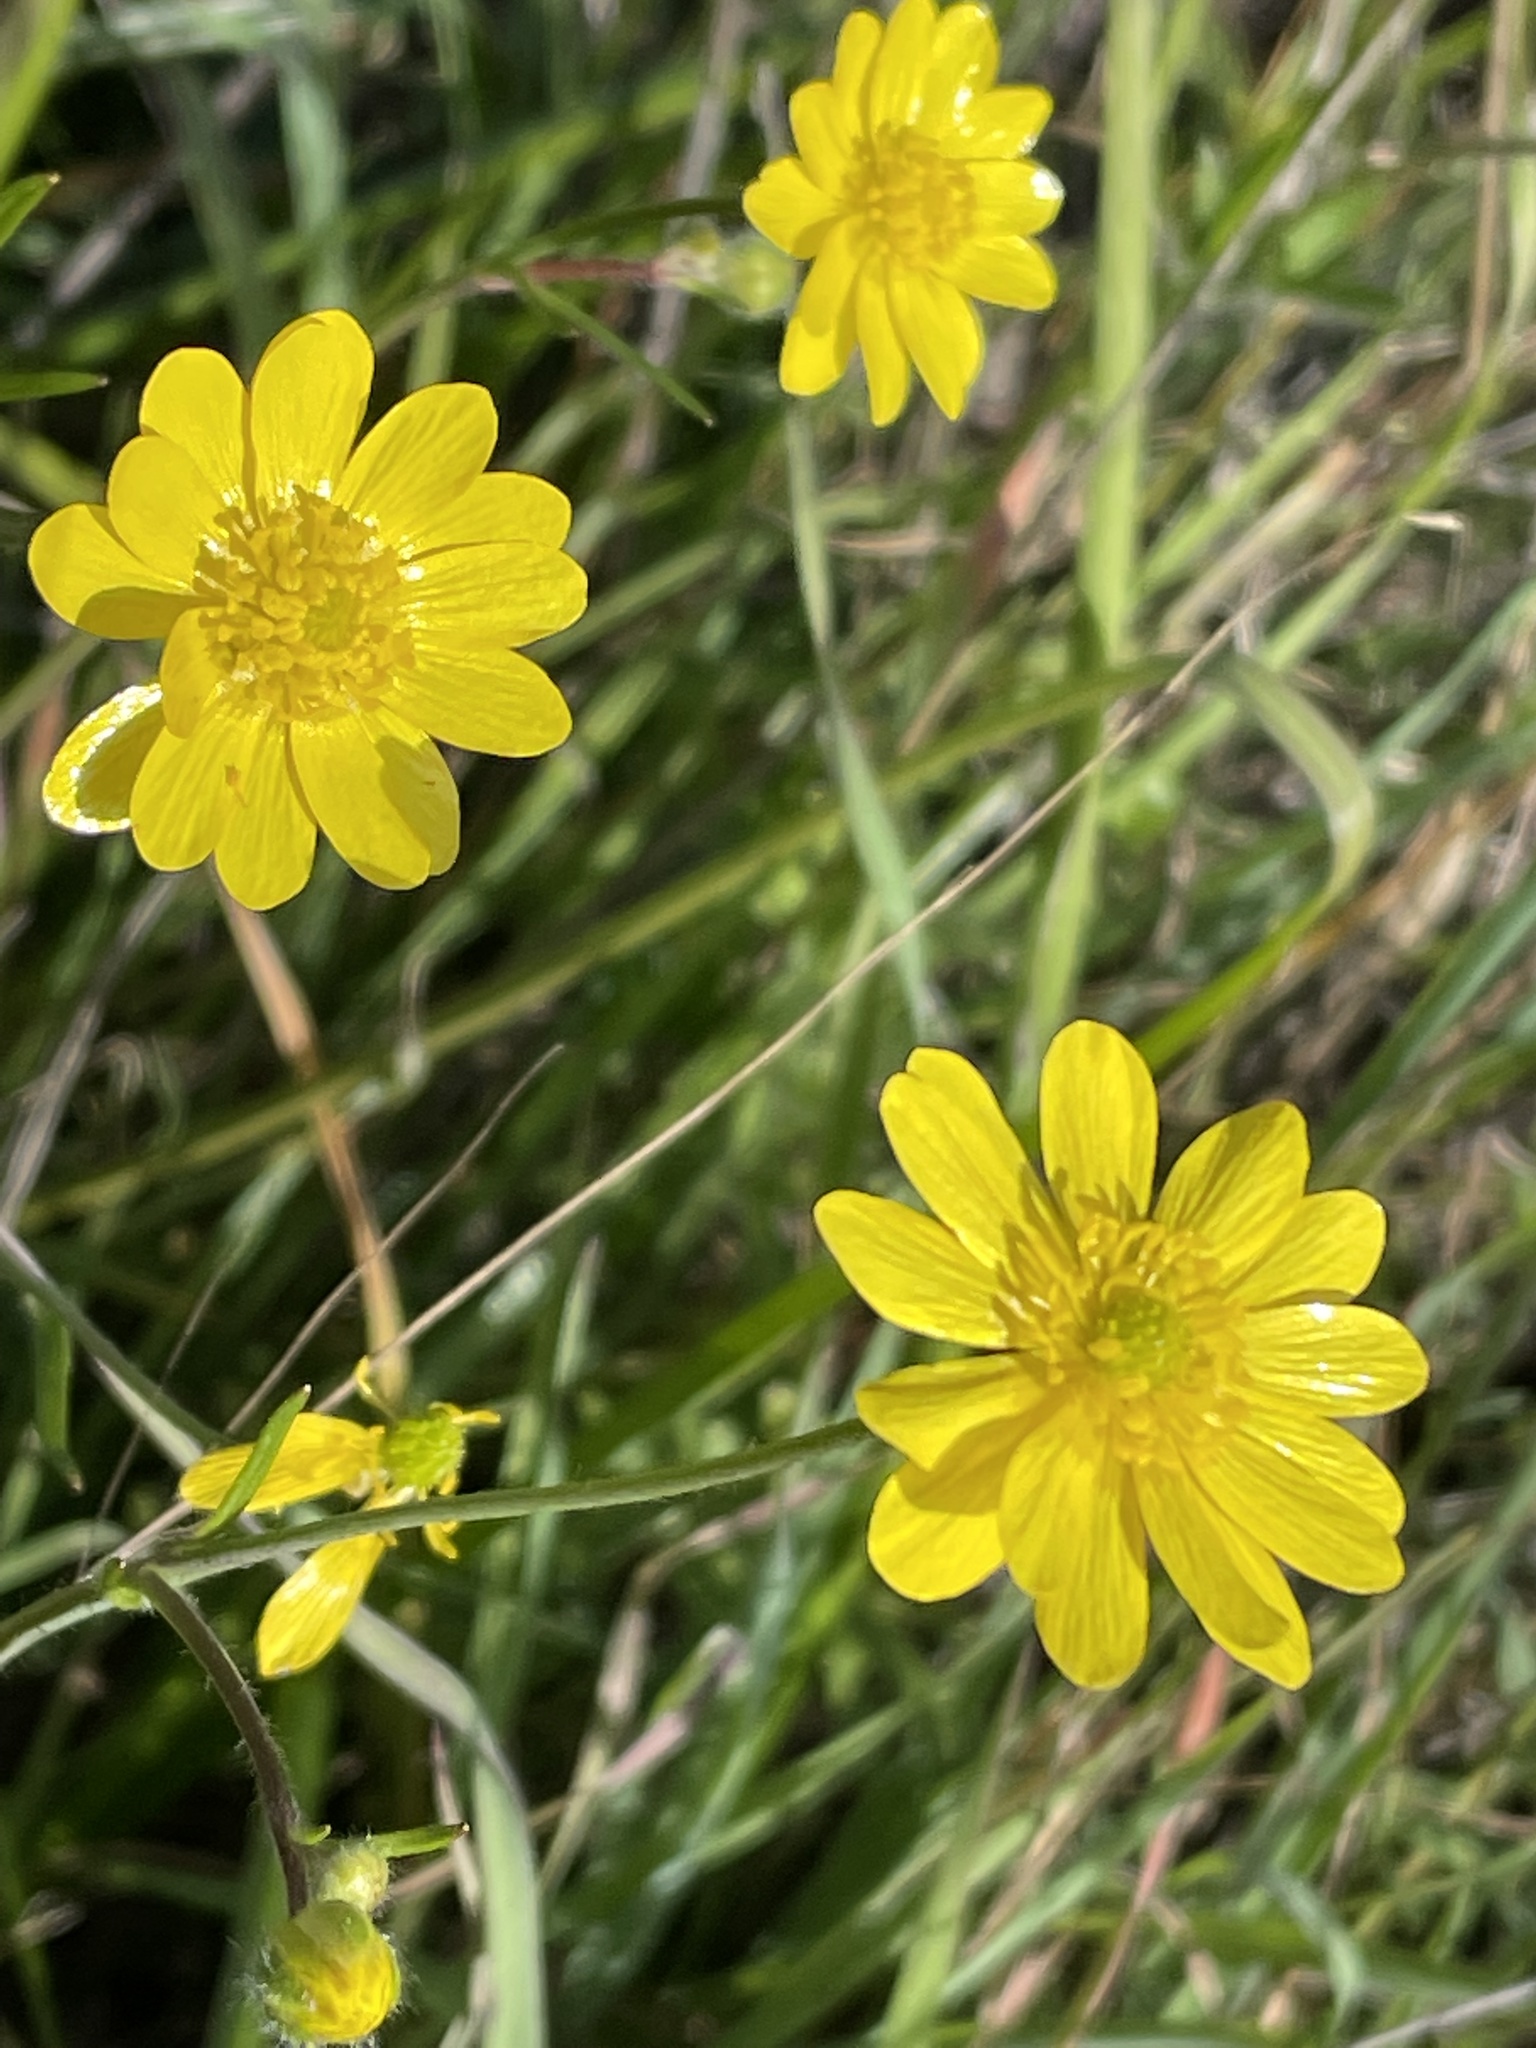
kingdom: Plantae
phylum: Tracheophyta
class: Magnoliopsida
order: Ranunculales
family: Ranunculaceae
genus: Ranunculus
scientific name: Ranunculus californicus
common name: California buttercup
